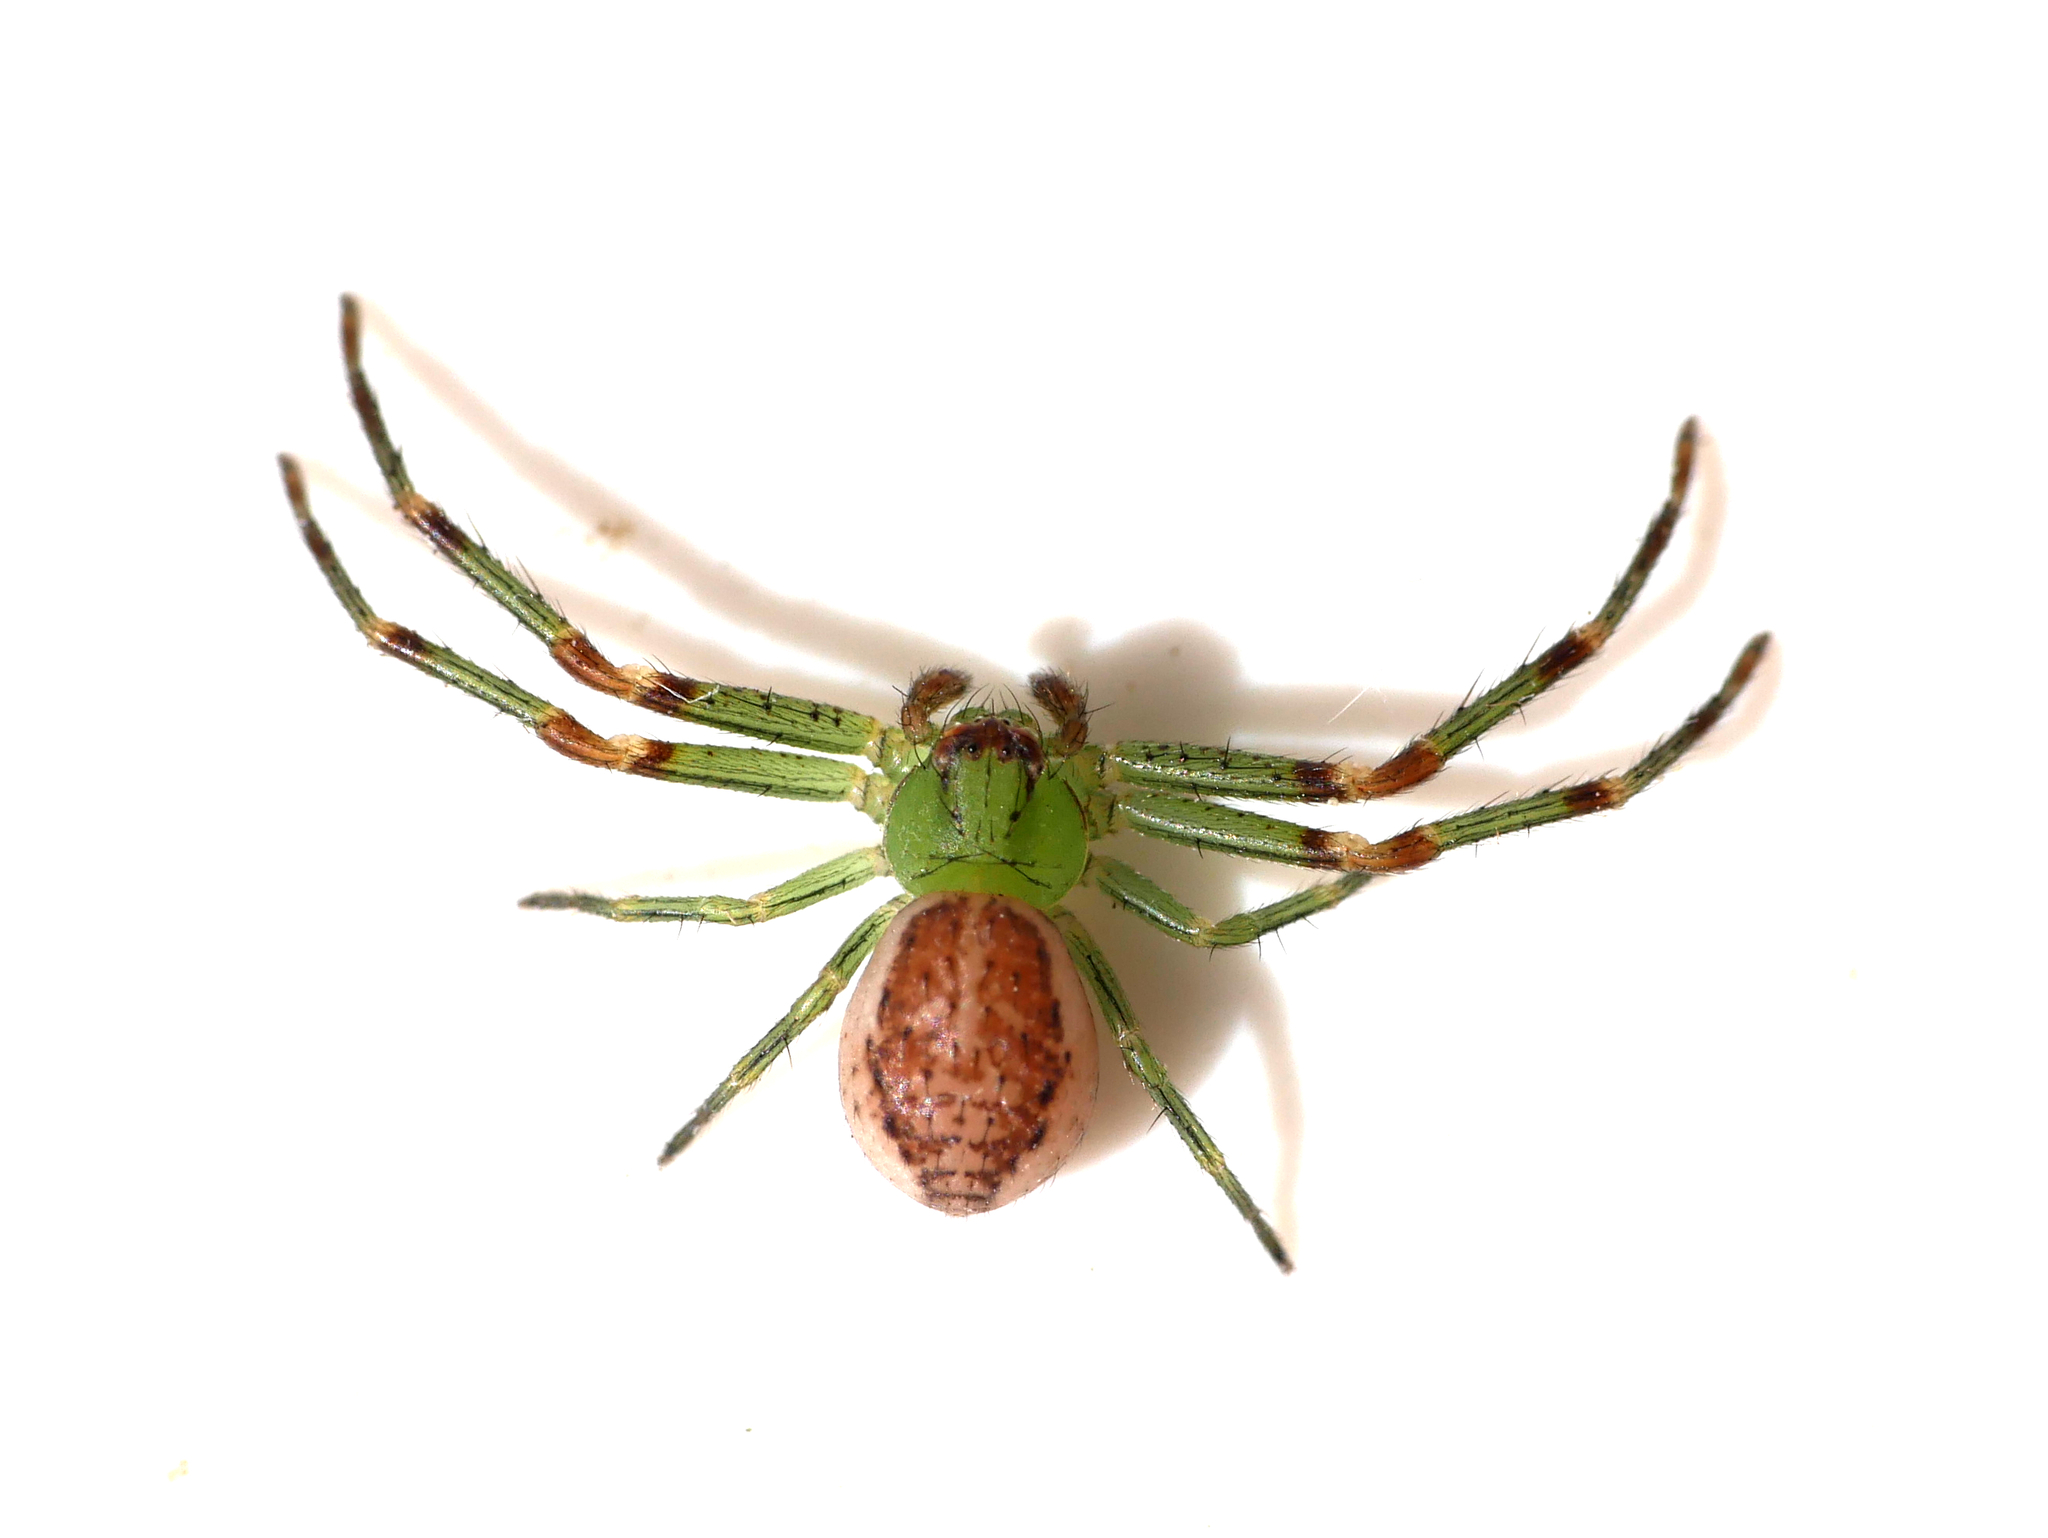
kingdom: Animalia
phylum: Arthropoda
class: Arachnida
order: Araneae
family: Thomisidae
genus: Diaea
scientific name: Diaea dorsata
